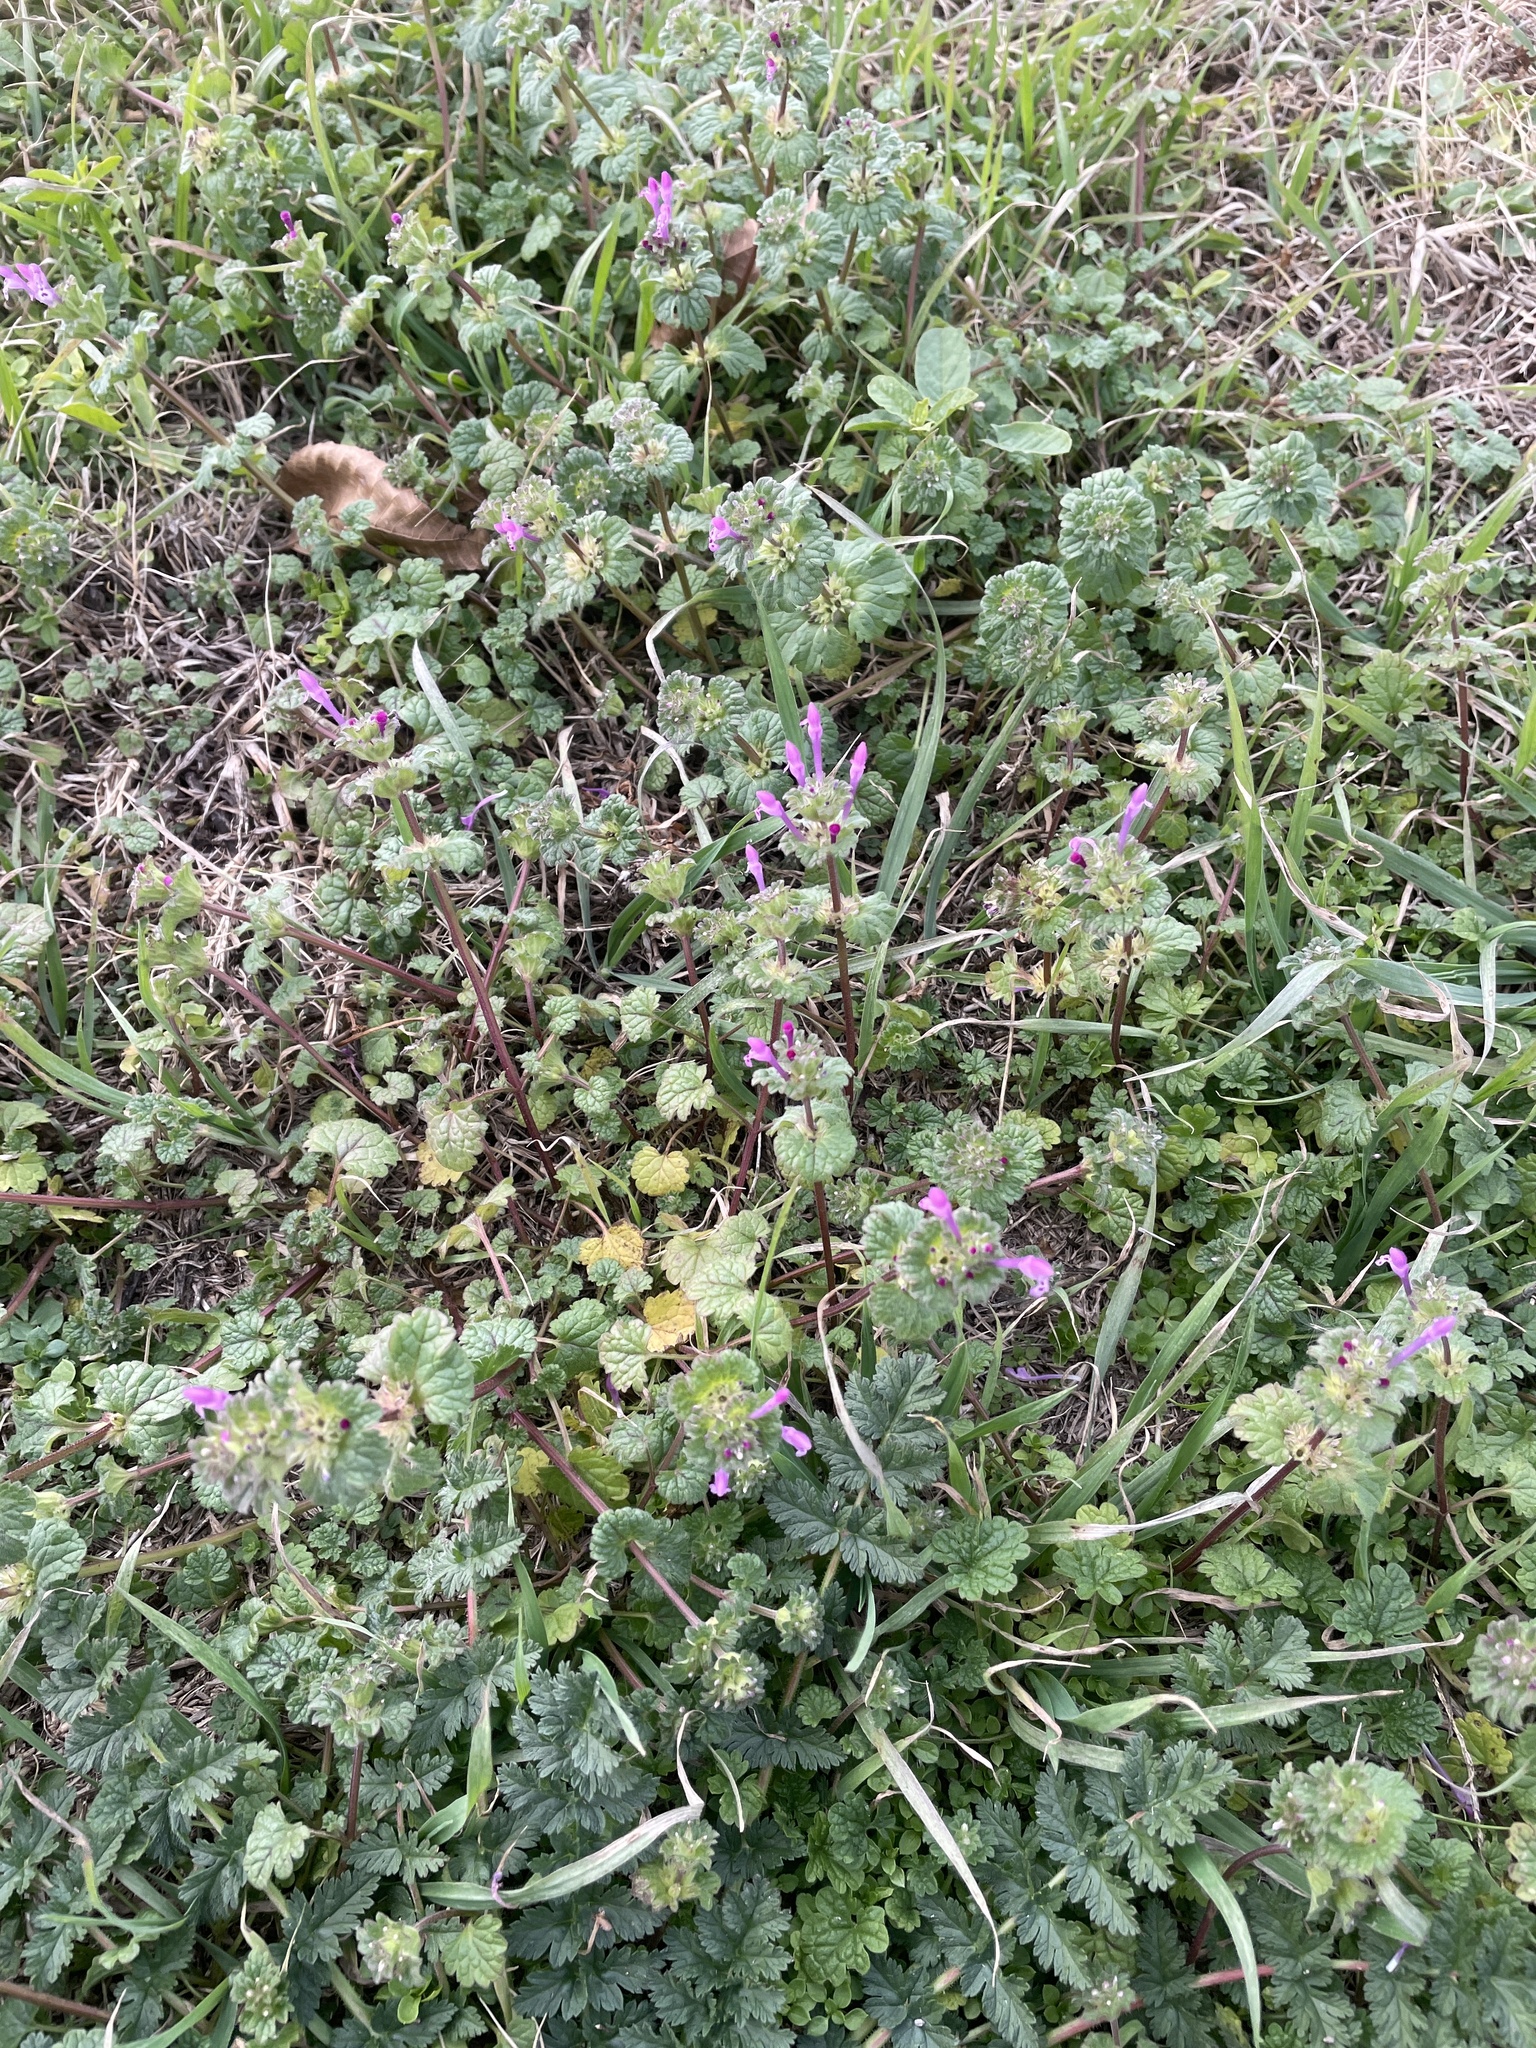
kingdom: Plantae
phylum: Tracheophyta
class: Magnoliopsida
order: Lamiales
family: Lamiaceae
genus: Lamium
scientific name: Lamium amplexicaule
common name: Henbit dead-nettle
